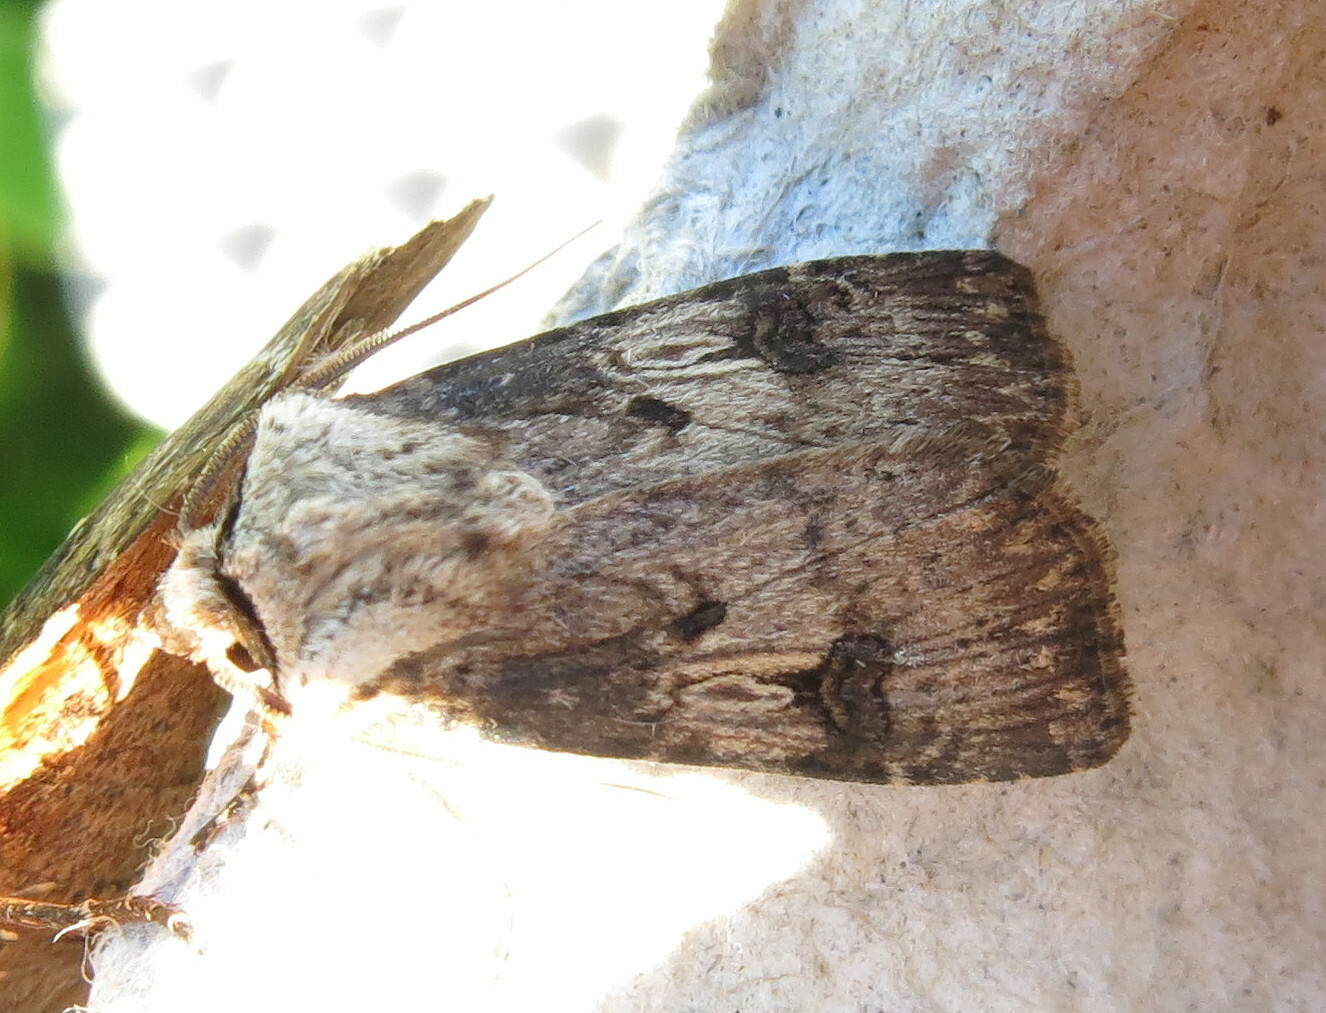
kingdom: Animalia
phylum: Arthropoda
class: Insecta
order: Lepidoptera
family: Noctuidae
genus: Agrotis
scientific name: Agrotis puta
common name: Shuttle-shaped dart
